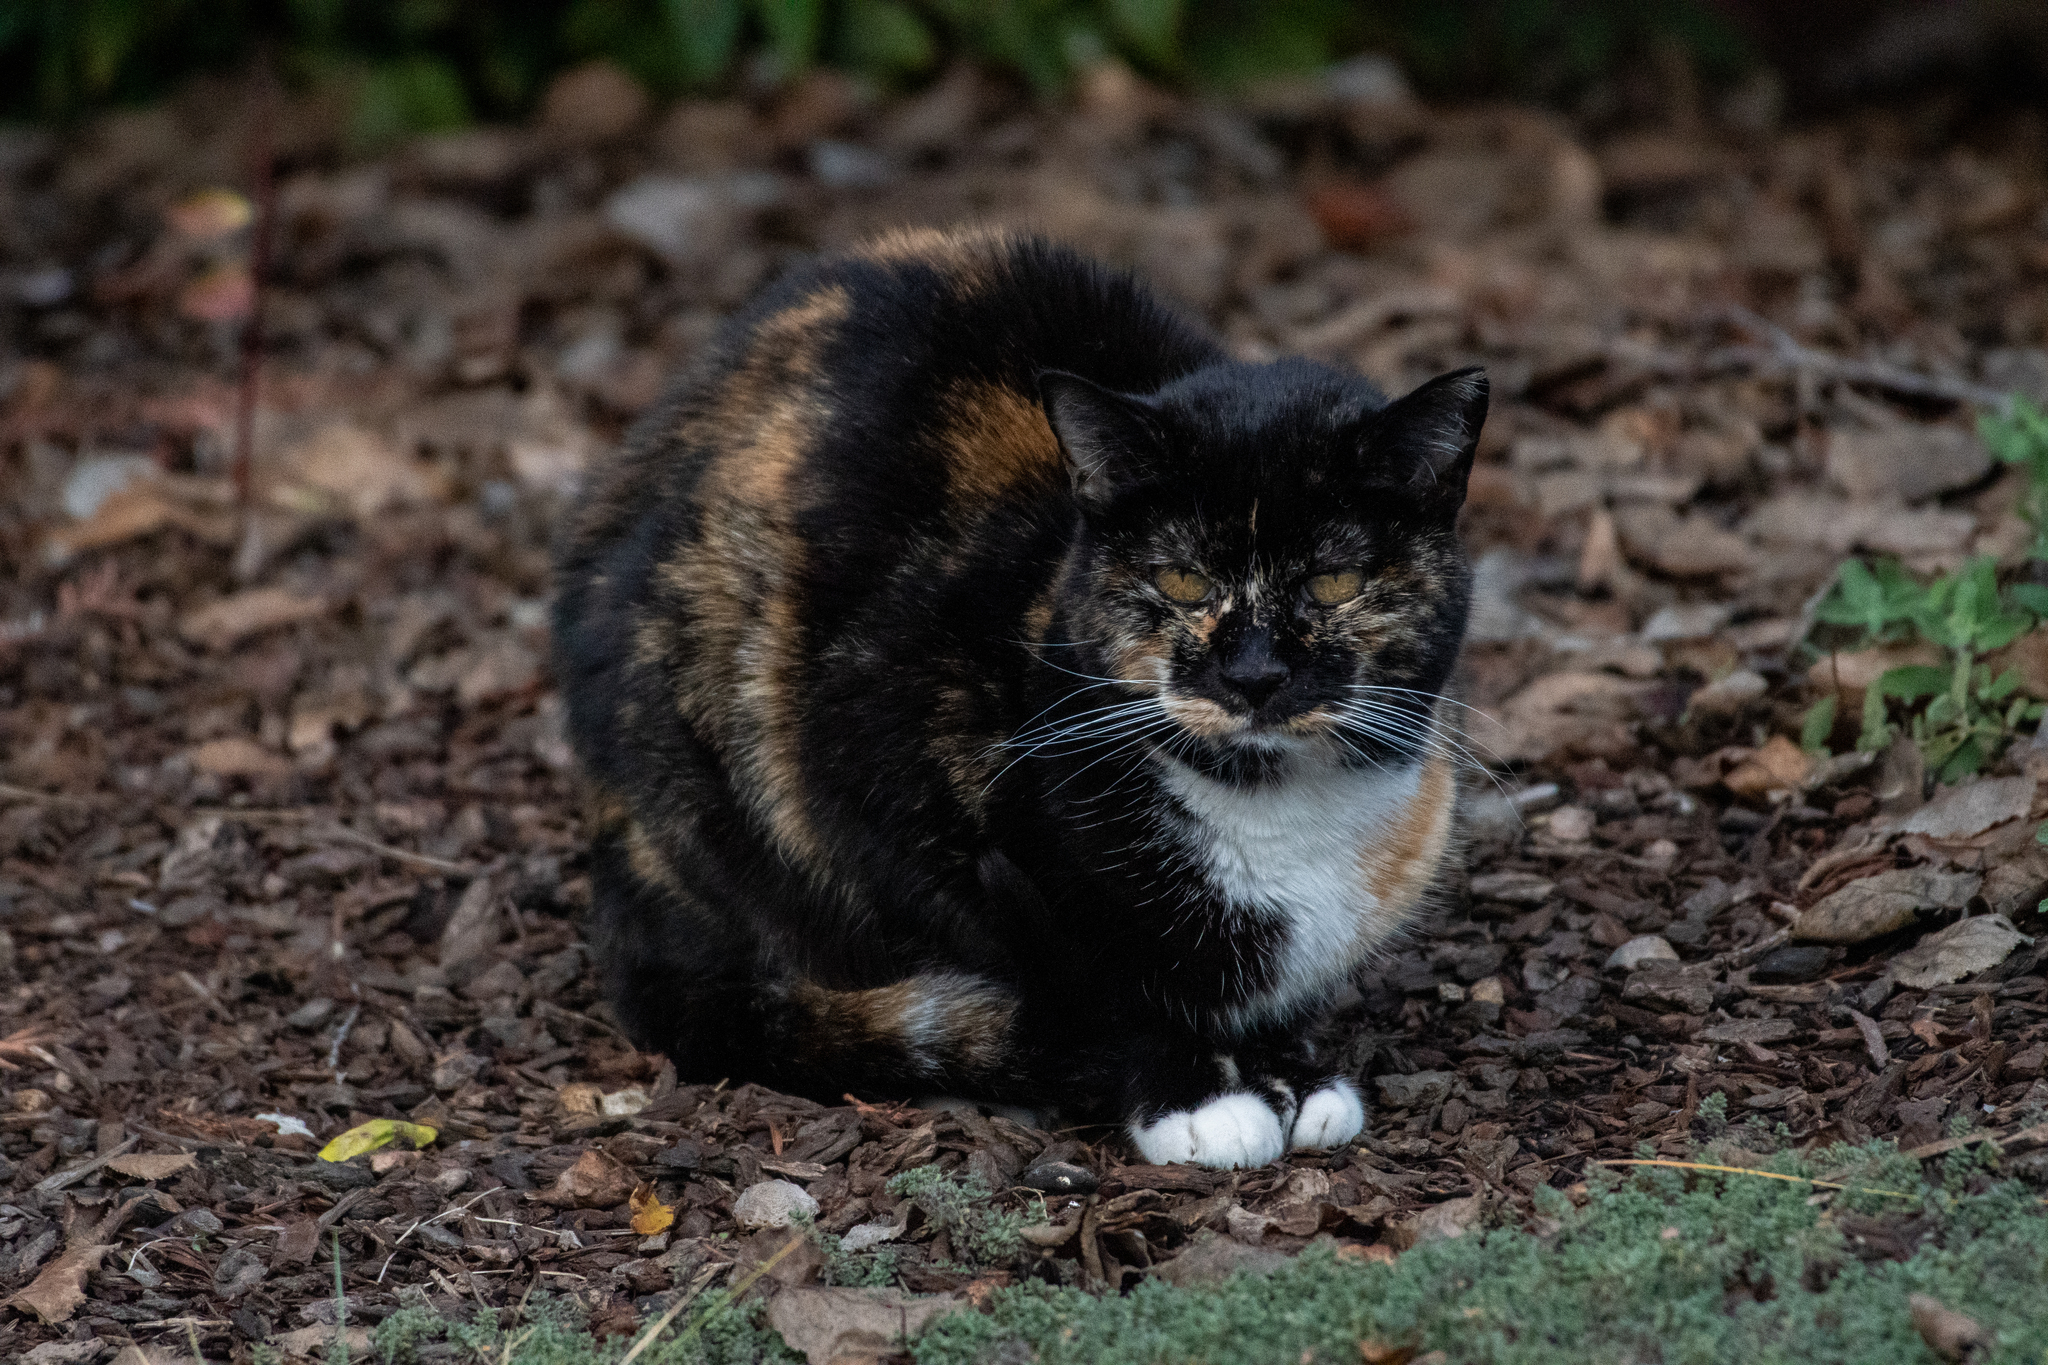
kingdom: Animalia
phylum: Chordata
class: Mammalia
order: Carnivora
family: Felidae
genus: Felis
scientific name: Felis catus
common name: Domestic cat
